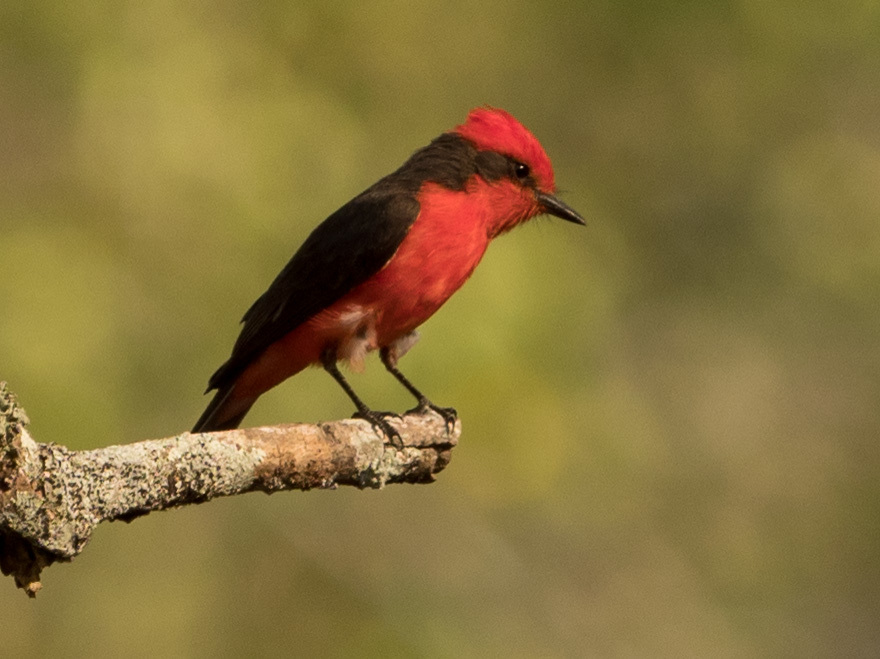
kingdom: Animalia
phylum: Chordata
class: Aves
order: Passeriformes
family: Tyrannidae
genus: Pyrocephalus
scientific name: Pyrocephalus rubinus
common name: Vermilion flycatcher
